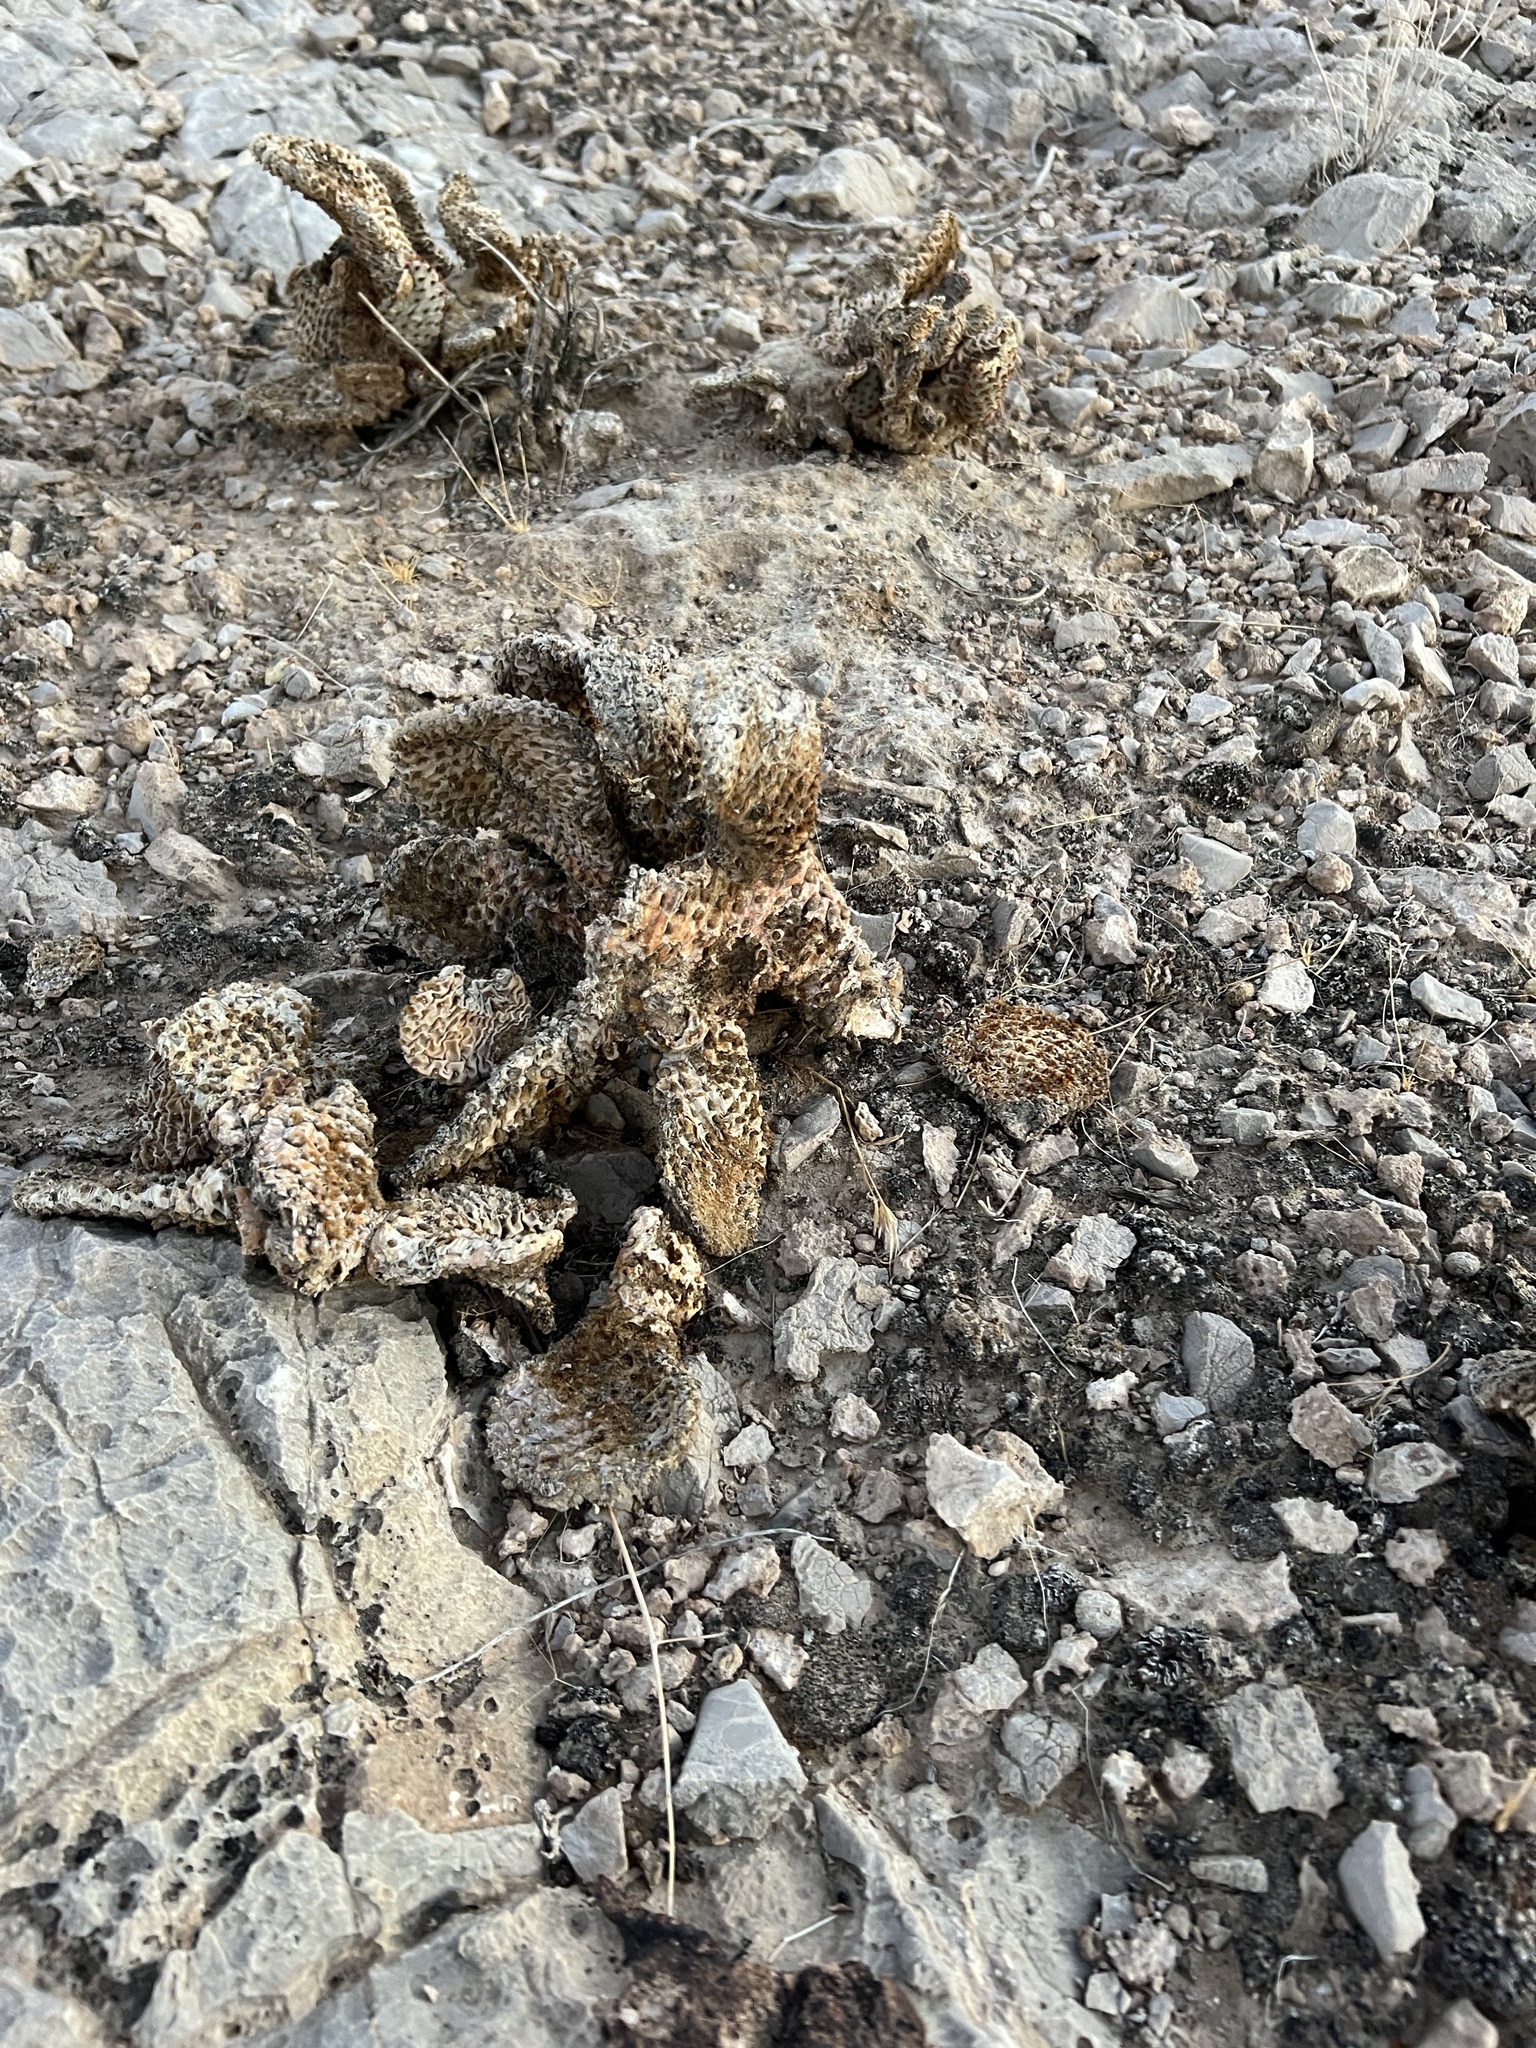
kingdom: Plantae
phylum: Tracheophyta
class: Magnoliopsida
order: Caryophyllales
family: Cactaceae
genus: Opuntia
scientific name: Opuntia basilaris
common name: Beavertail prickly-pear
